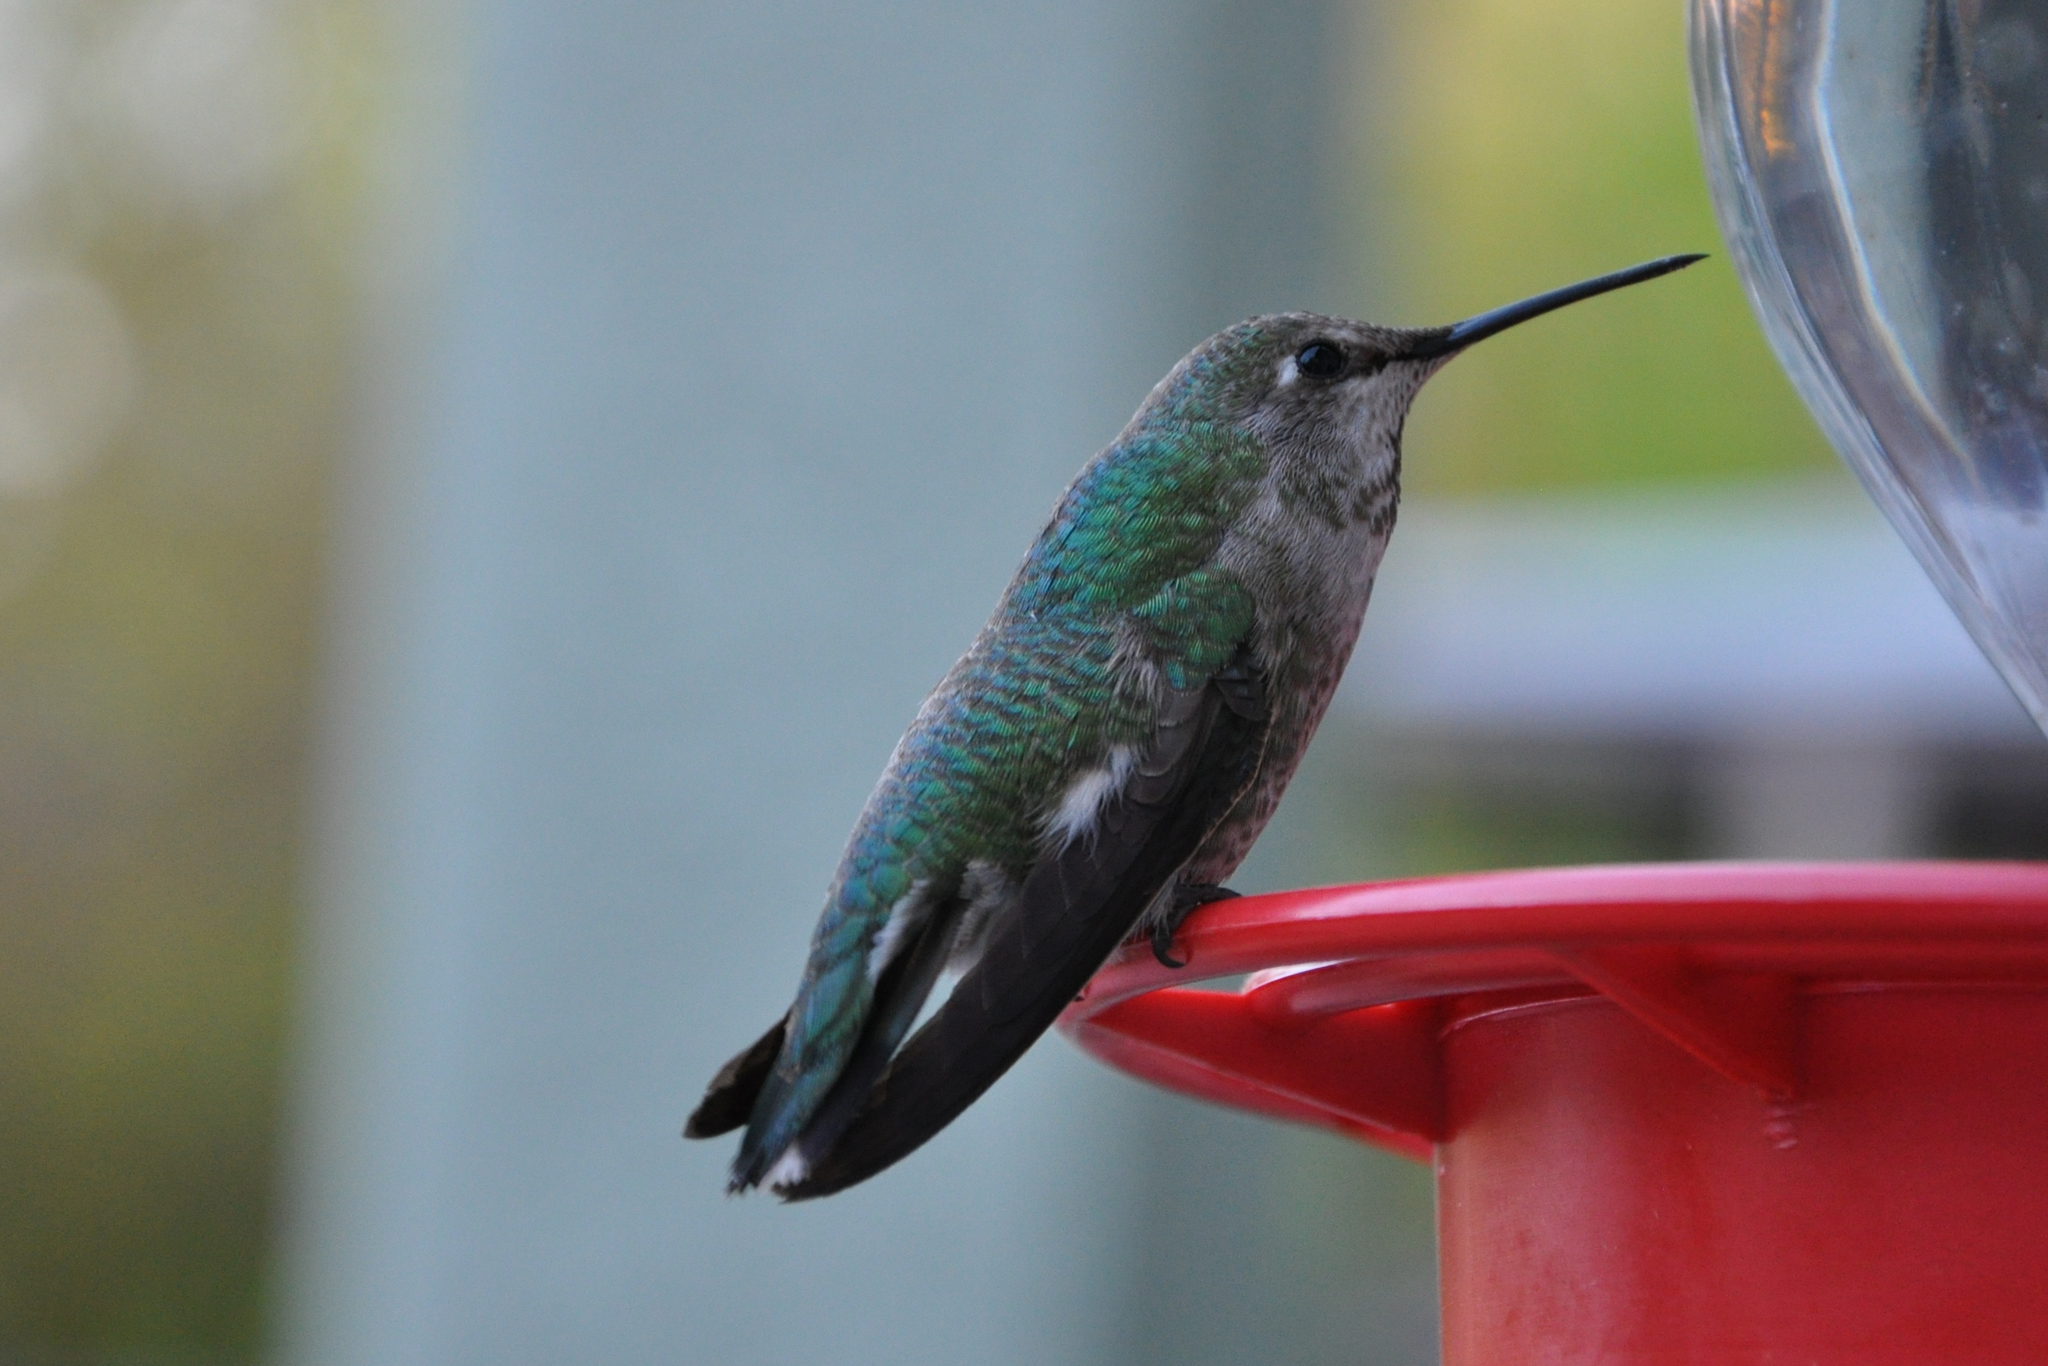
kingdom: Animalia
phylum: Chordata
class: Aves
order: Apodiformes
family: Trochilidae
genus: Calypte
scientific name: Calypte anna
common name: Anna's hummingbird
